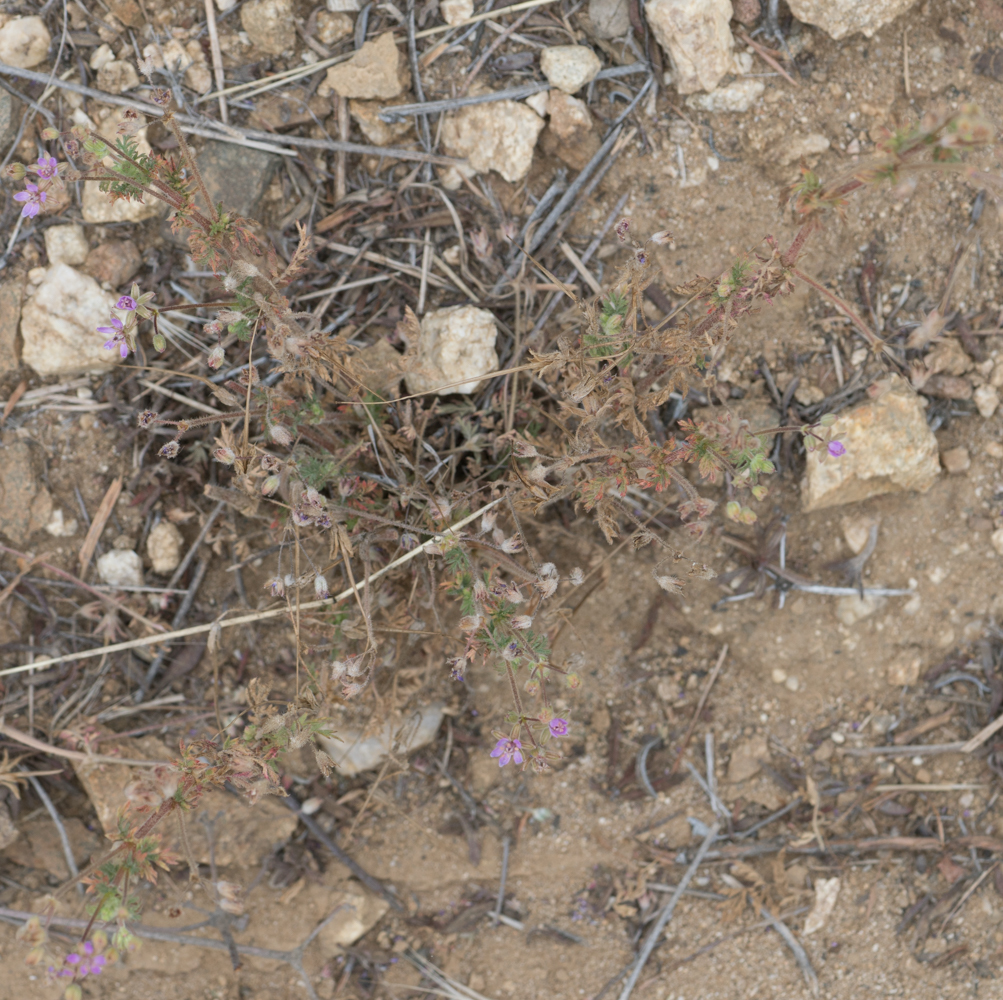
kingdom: Plantae
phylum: Tracheophyta
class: Magnoliopsida
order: Geraniales
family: Geraniaceae
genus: Erodium
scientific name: Erodium cicutarium
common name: Common stork's-bill
